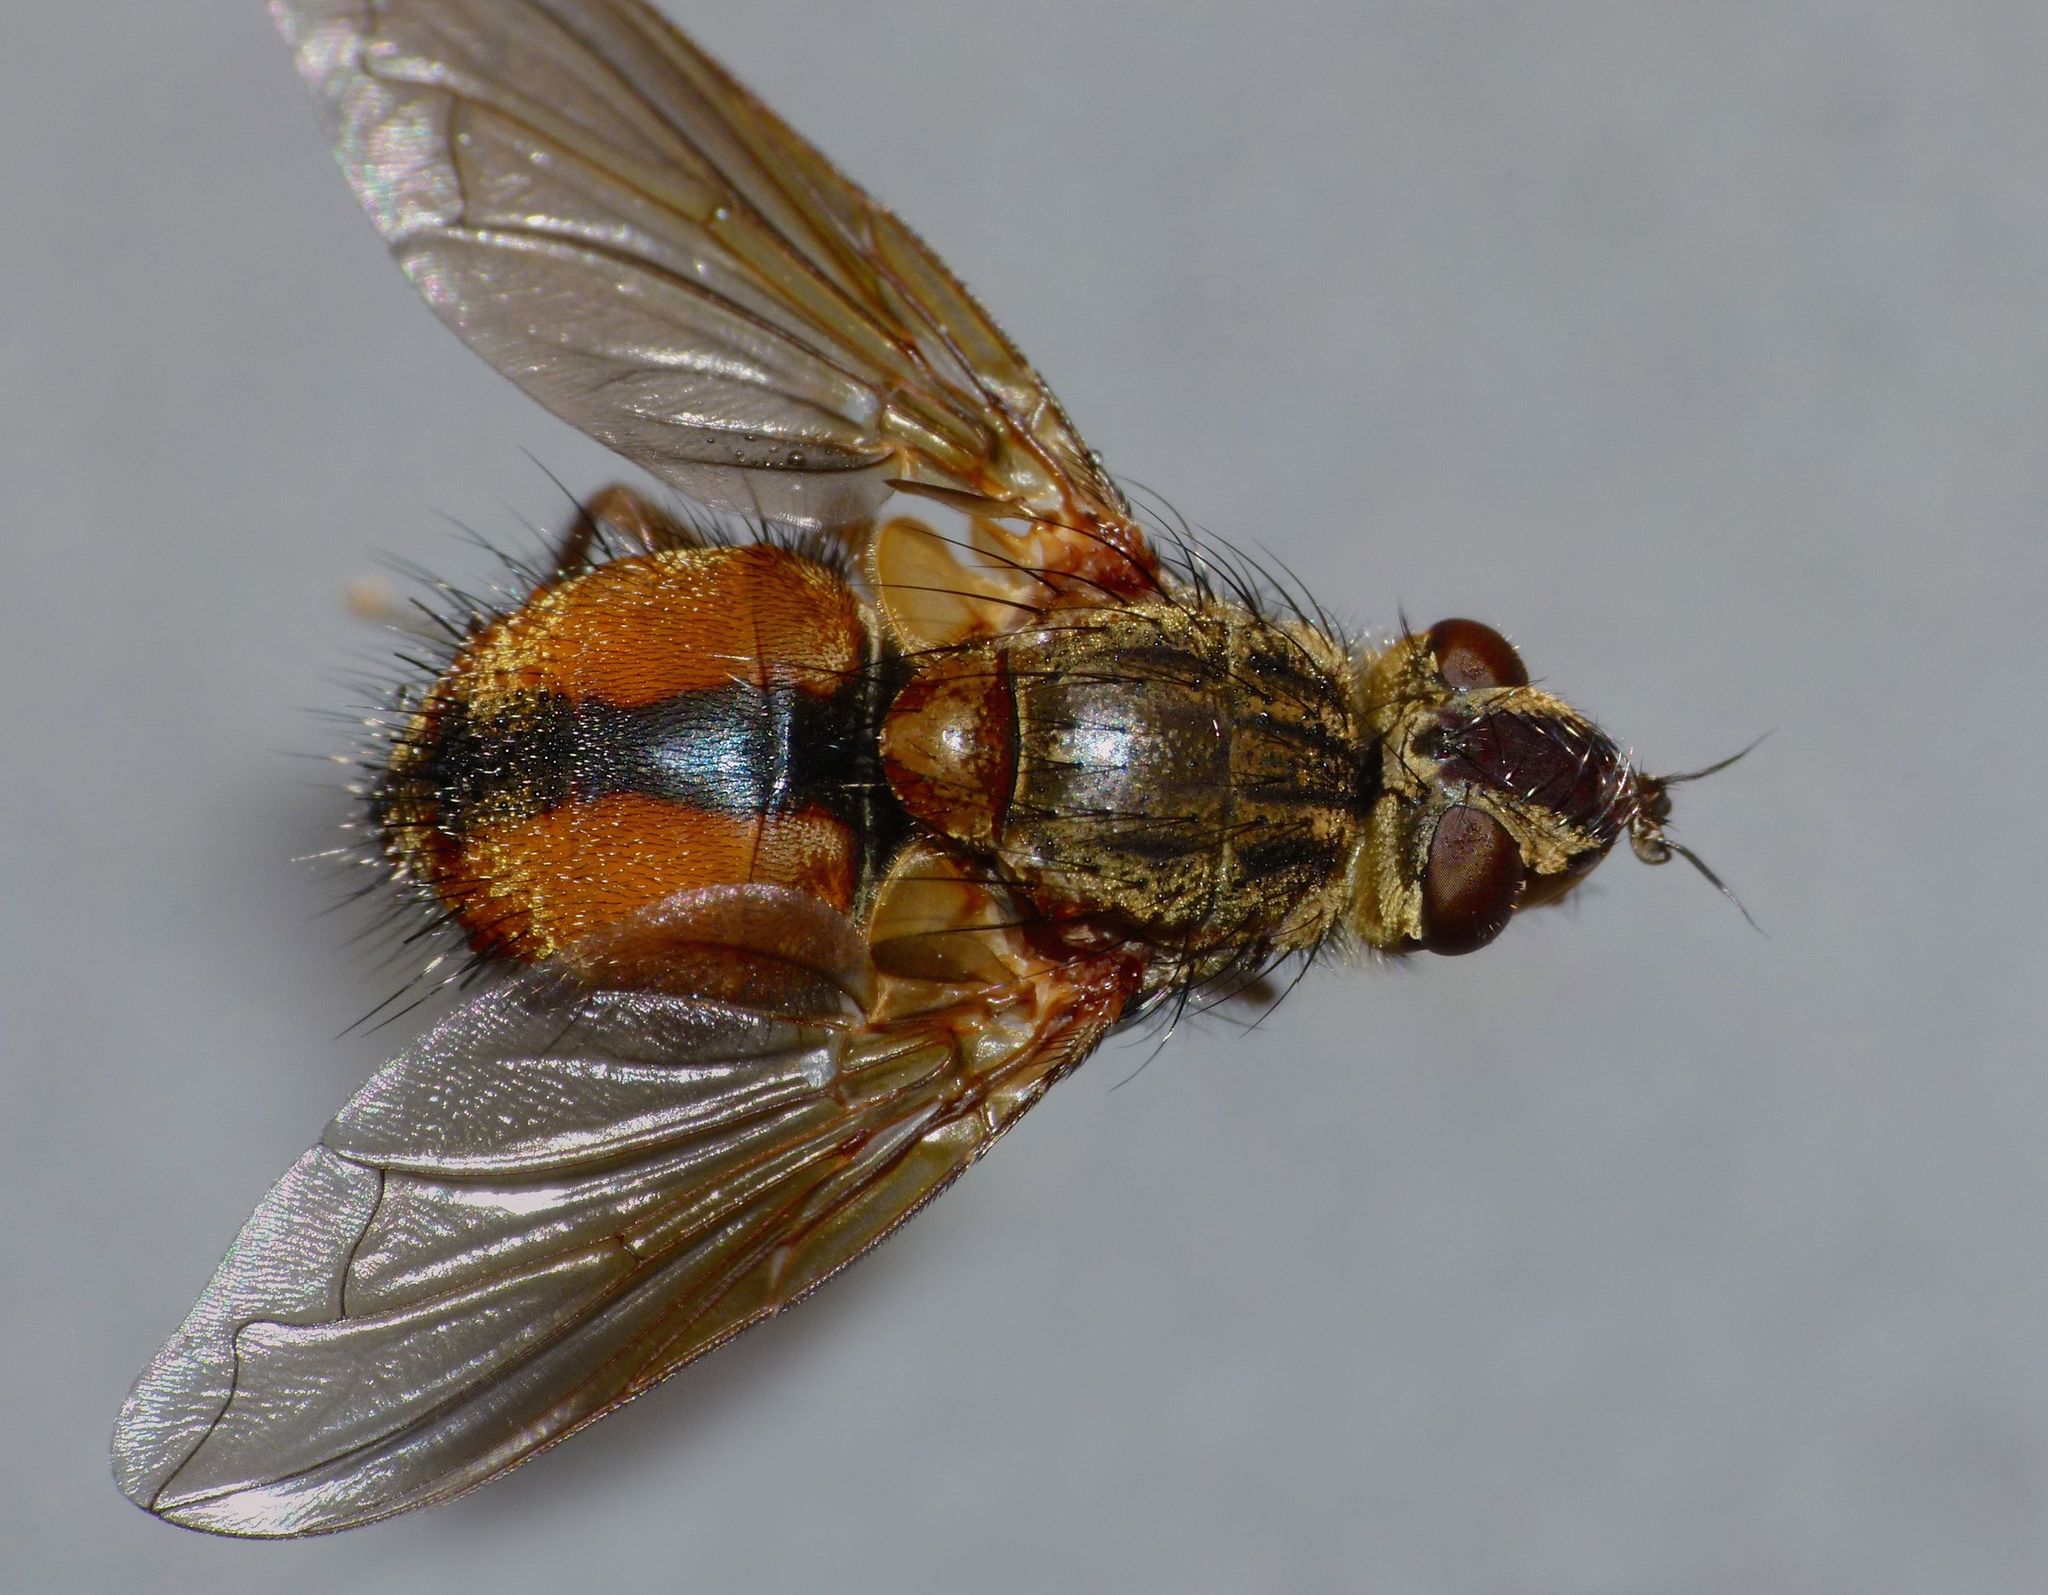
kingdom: Animalia
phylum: Arthropoda
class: Insecta
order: Diptera
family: Tachinidae
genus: Peremptor
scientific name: Peremptor kumaraensis
